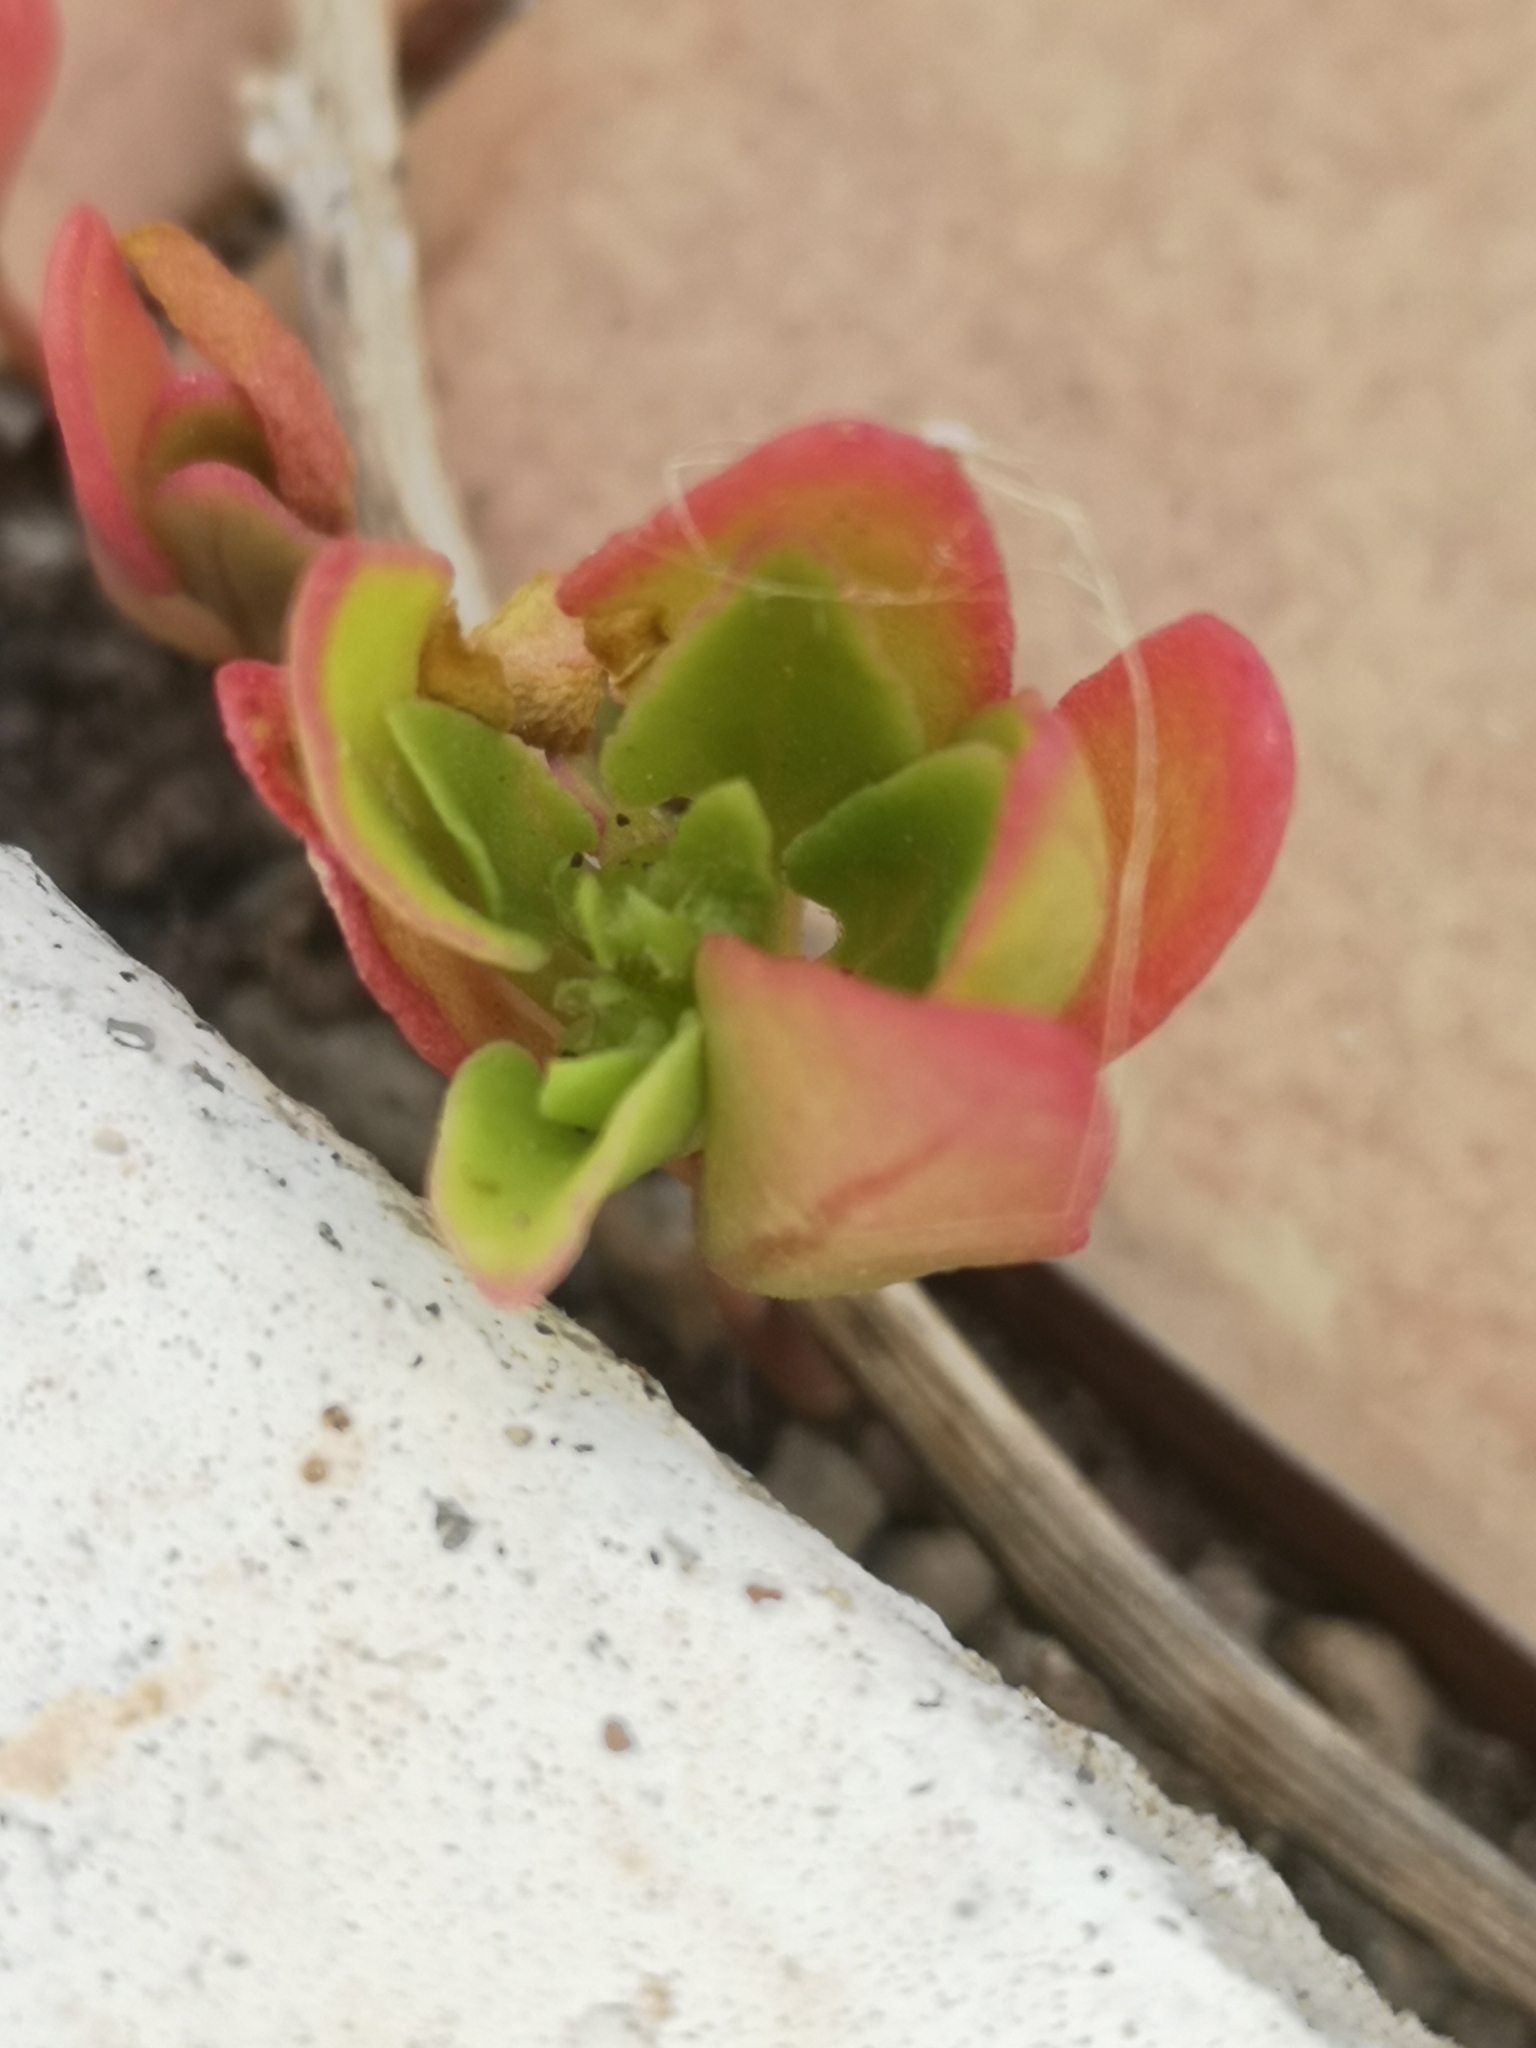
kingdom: Plantae
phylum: Tracheophyta
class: Magnoliopsida
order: Caryophyllales
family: Amaranthaceae
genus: Patellifolia
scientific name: Patellifolia procumbens
